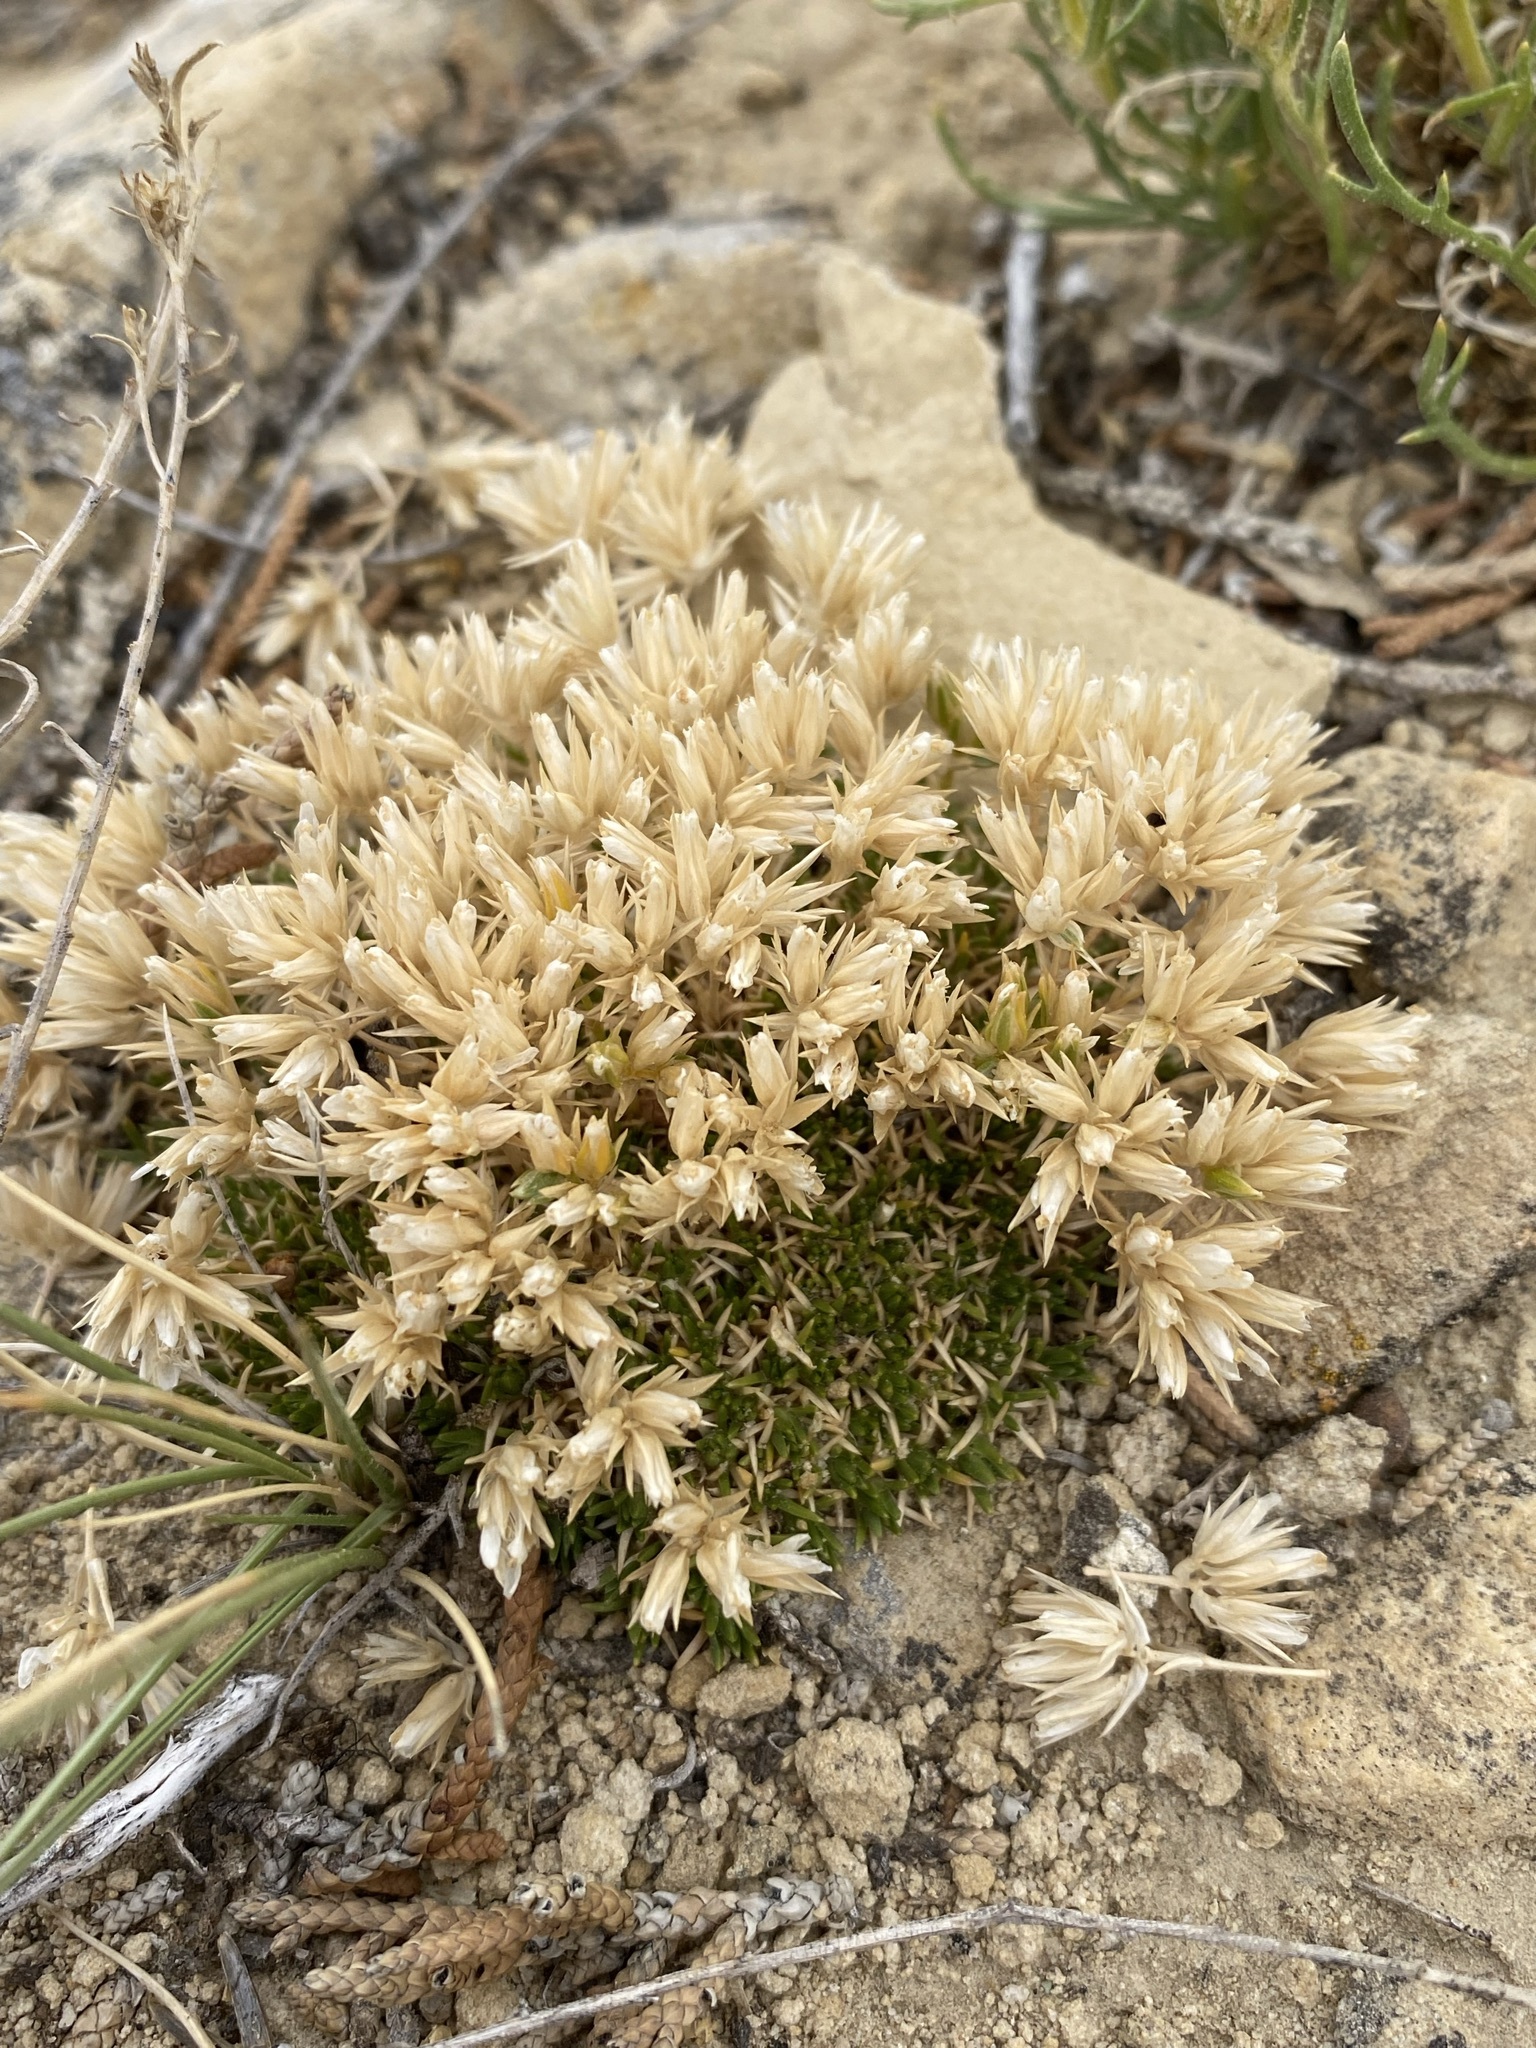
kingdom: Plantae
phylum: Tracheophyta
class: Magnoliopsida
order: Caryophyllales
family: Caryophyllaceae
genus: Eremogone
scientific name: Eremogone hookeri
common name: Hooker's sandwort
